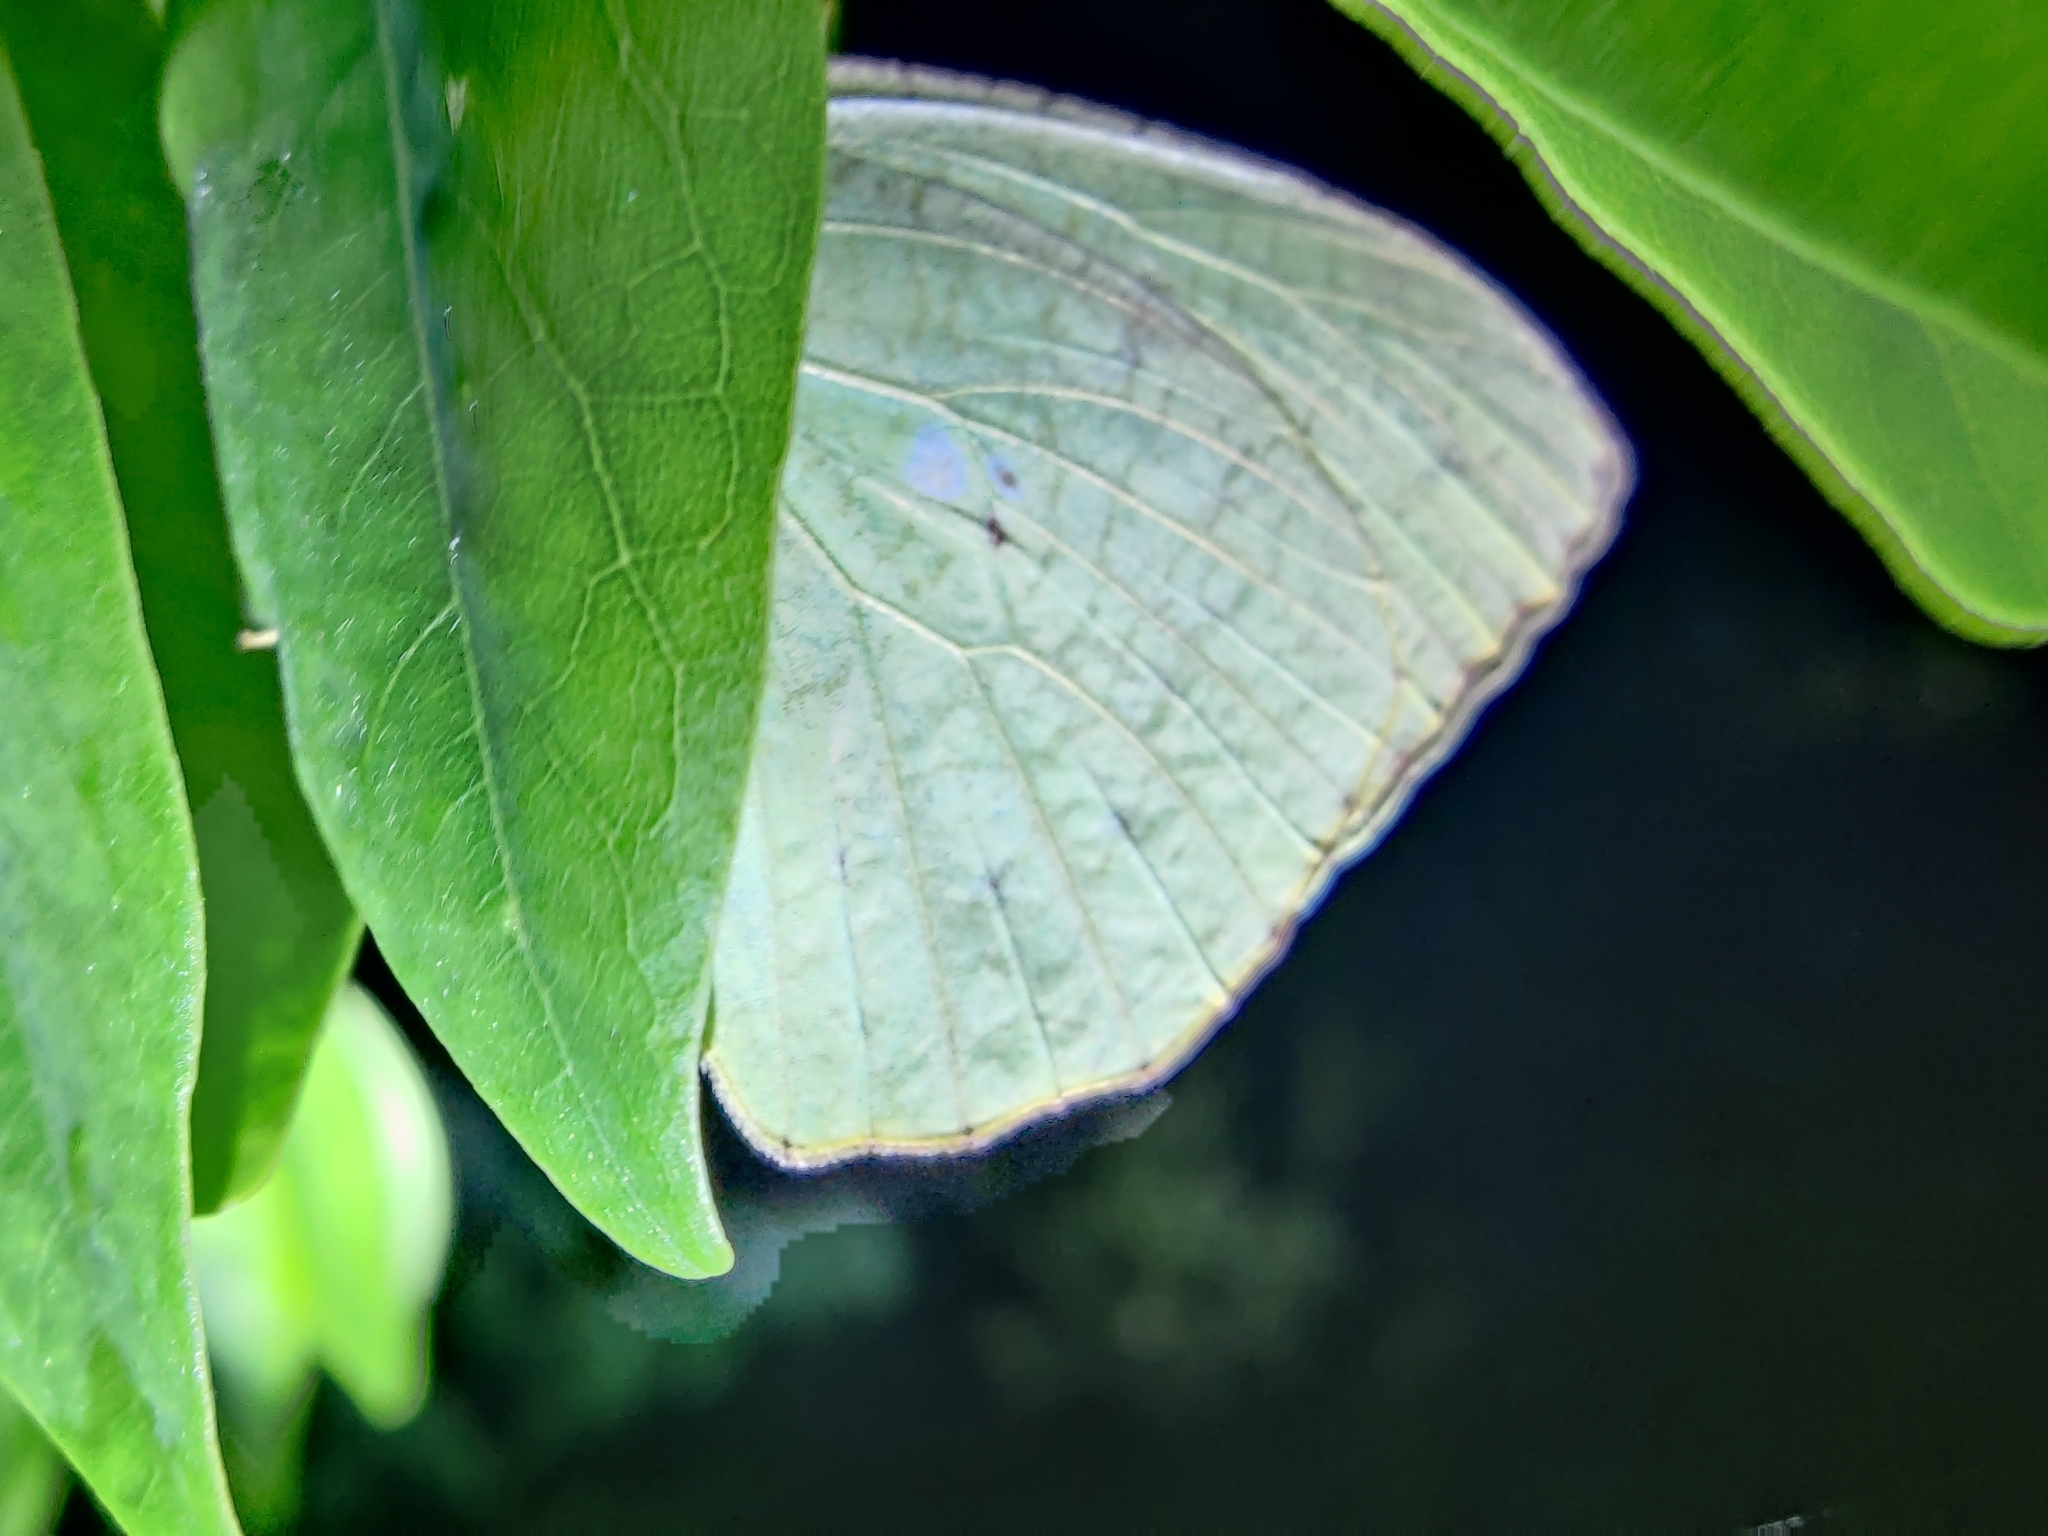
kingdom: Animalia
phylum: Arthropoda
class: Insecta
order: Lepidoptera
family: Pieridae
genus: Catopsilia
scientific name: Catopsilia pyranthe
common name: Mottled emigrant
